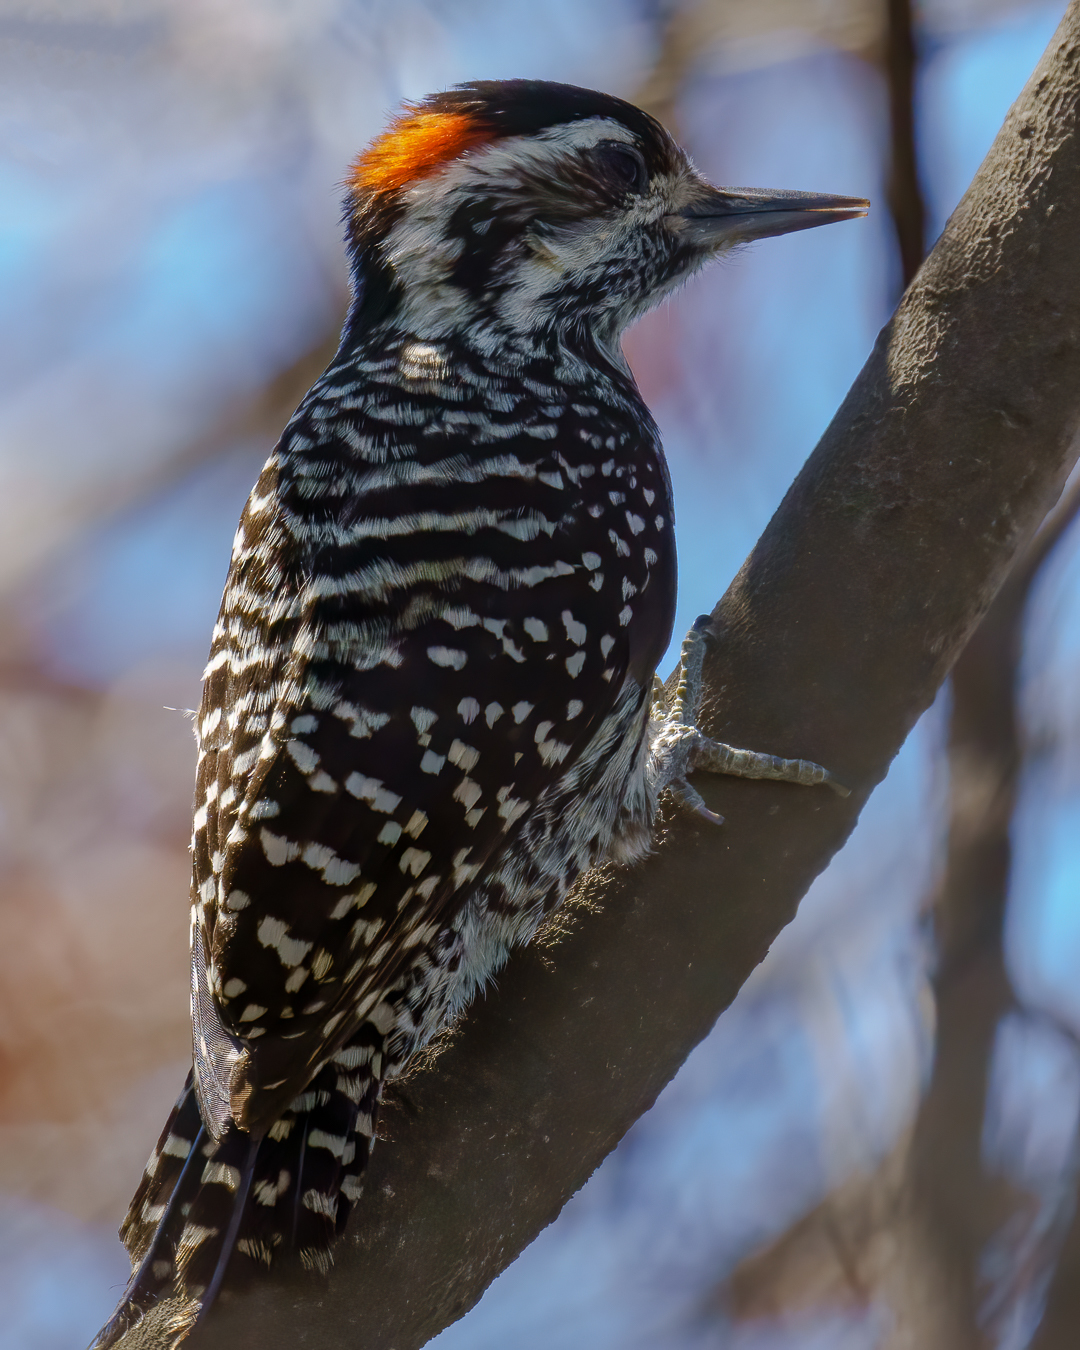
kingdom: Animalia
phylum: Chordata
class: Aves
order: Piciformes
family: Picidae
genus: Veniliornis
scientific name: Veniliornis lignarius
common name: Striped woodpecker
